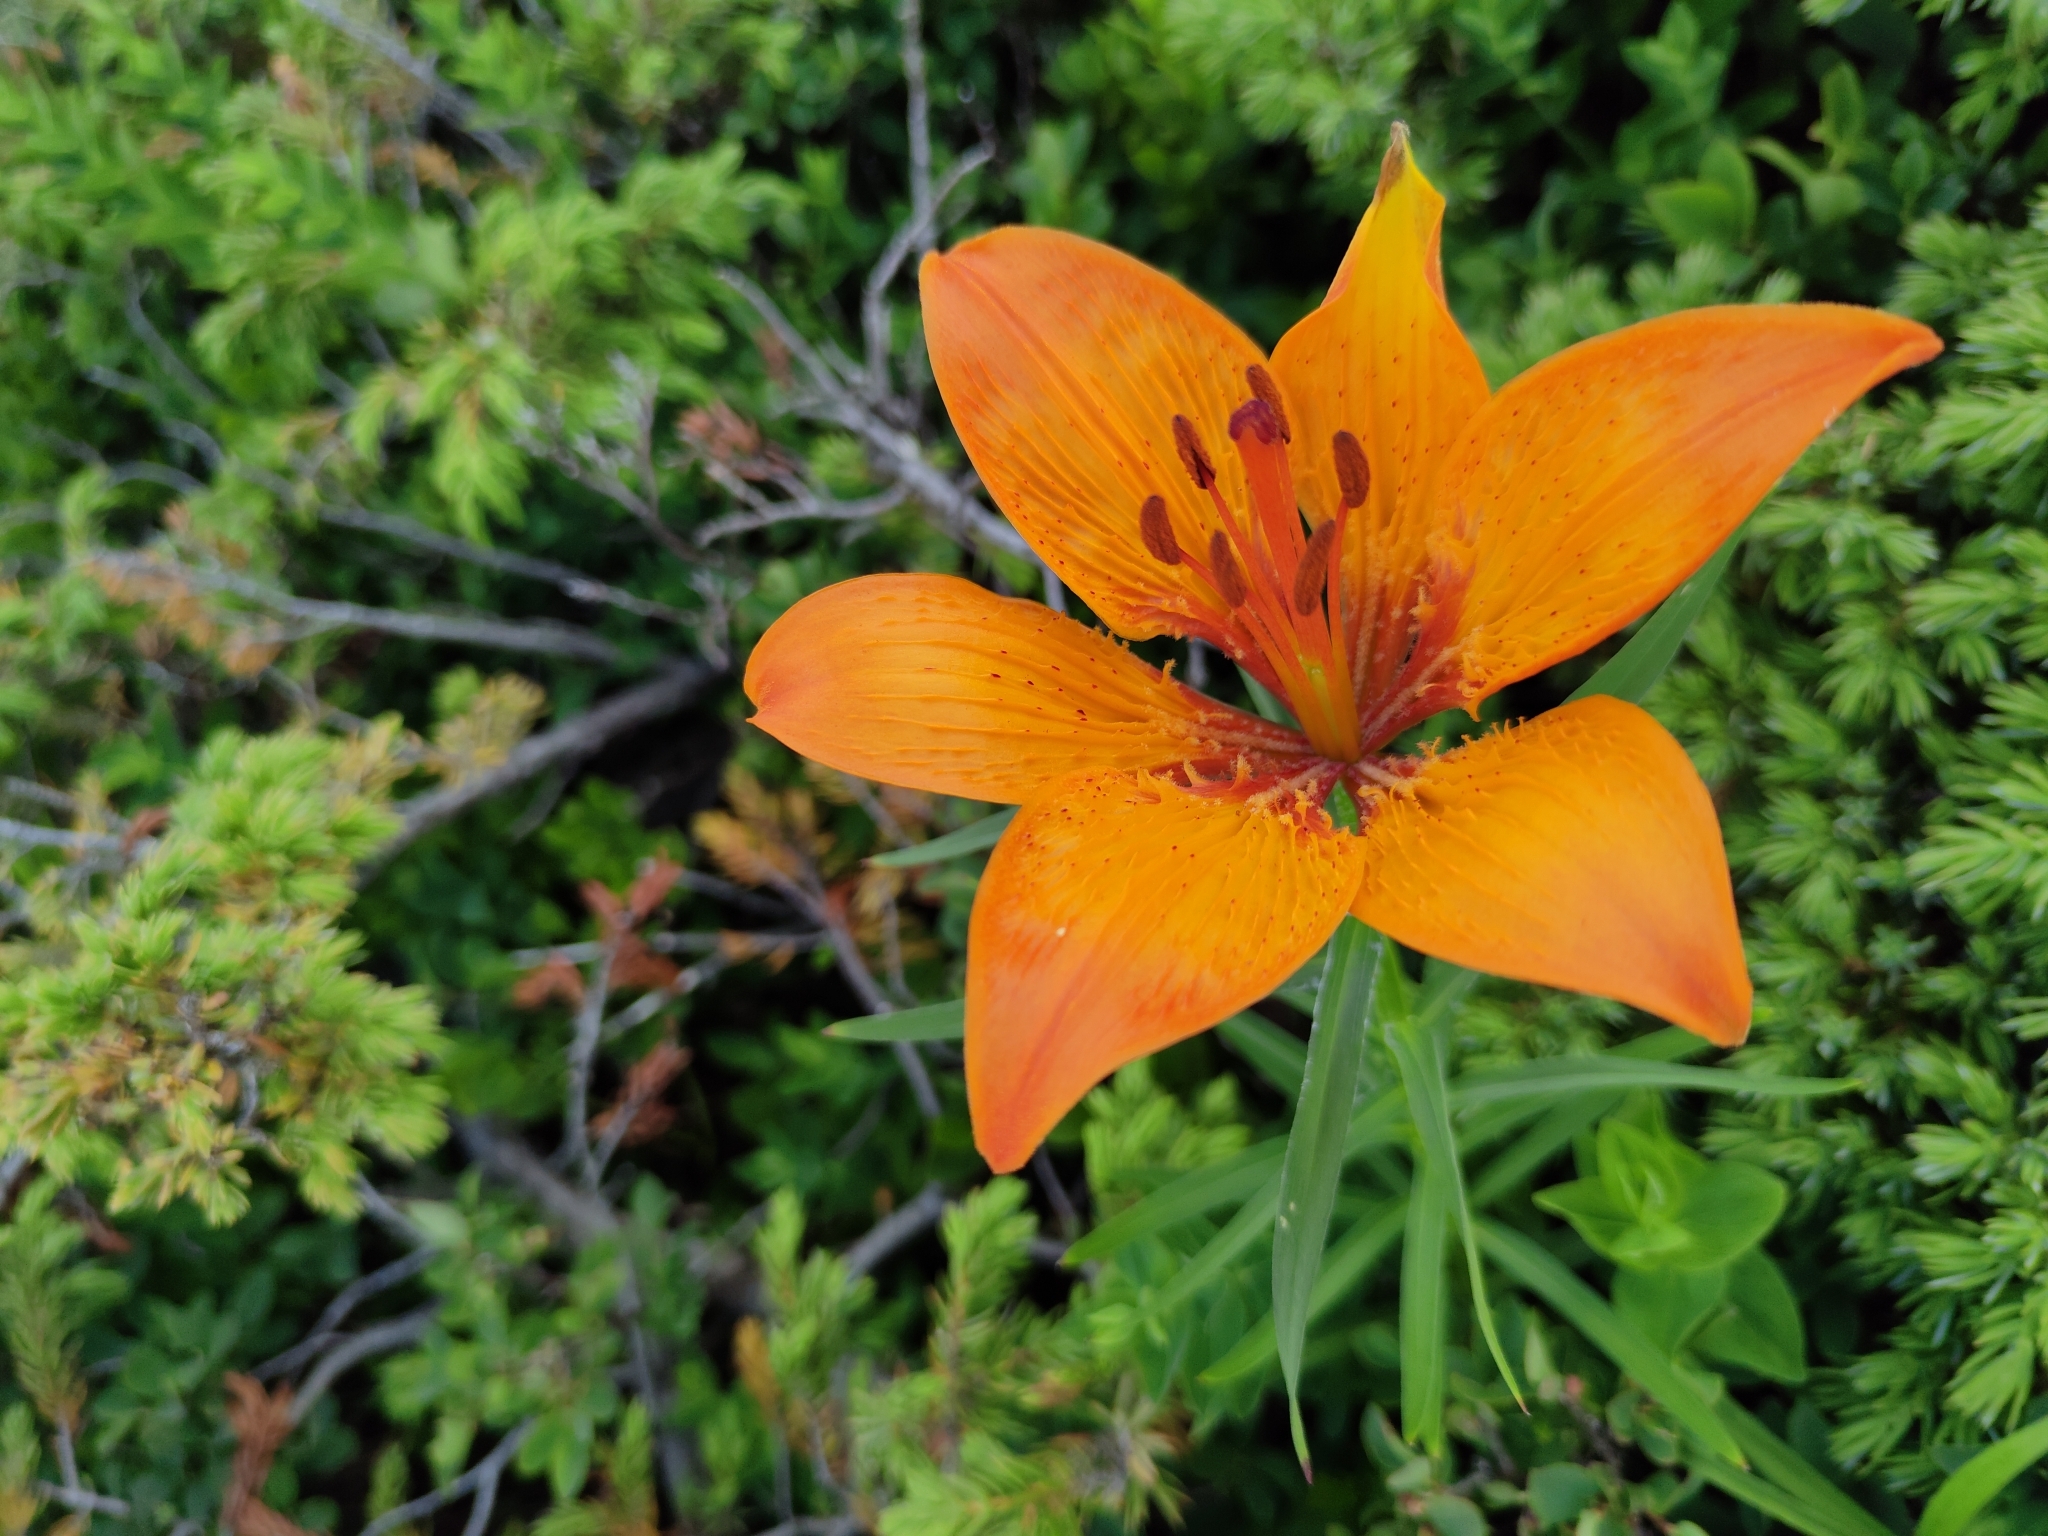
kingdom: Plantae
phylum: Tracheophyta
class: Liliopsida
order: Liliales
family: Liliaceae
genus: Lilium
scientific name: Lilium bulbiferum
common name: Orange lily
